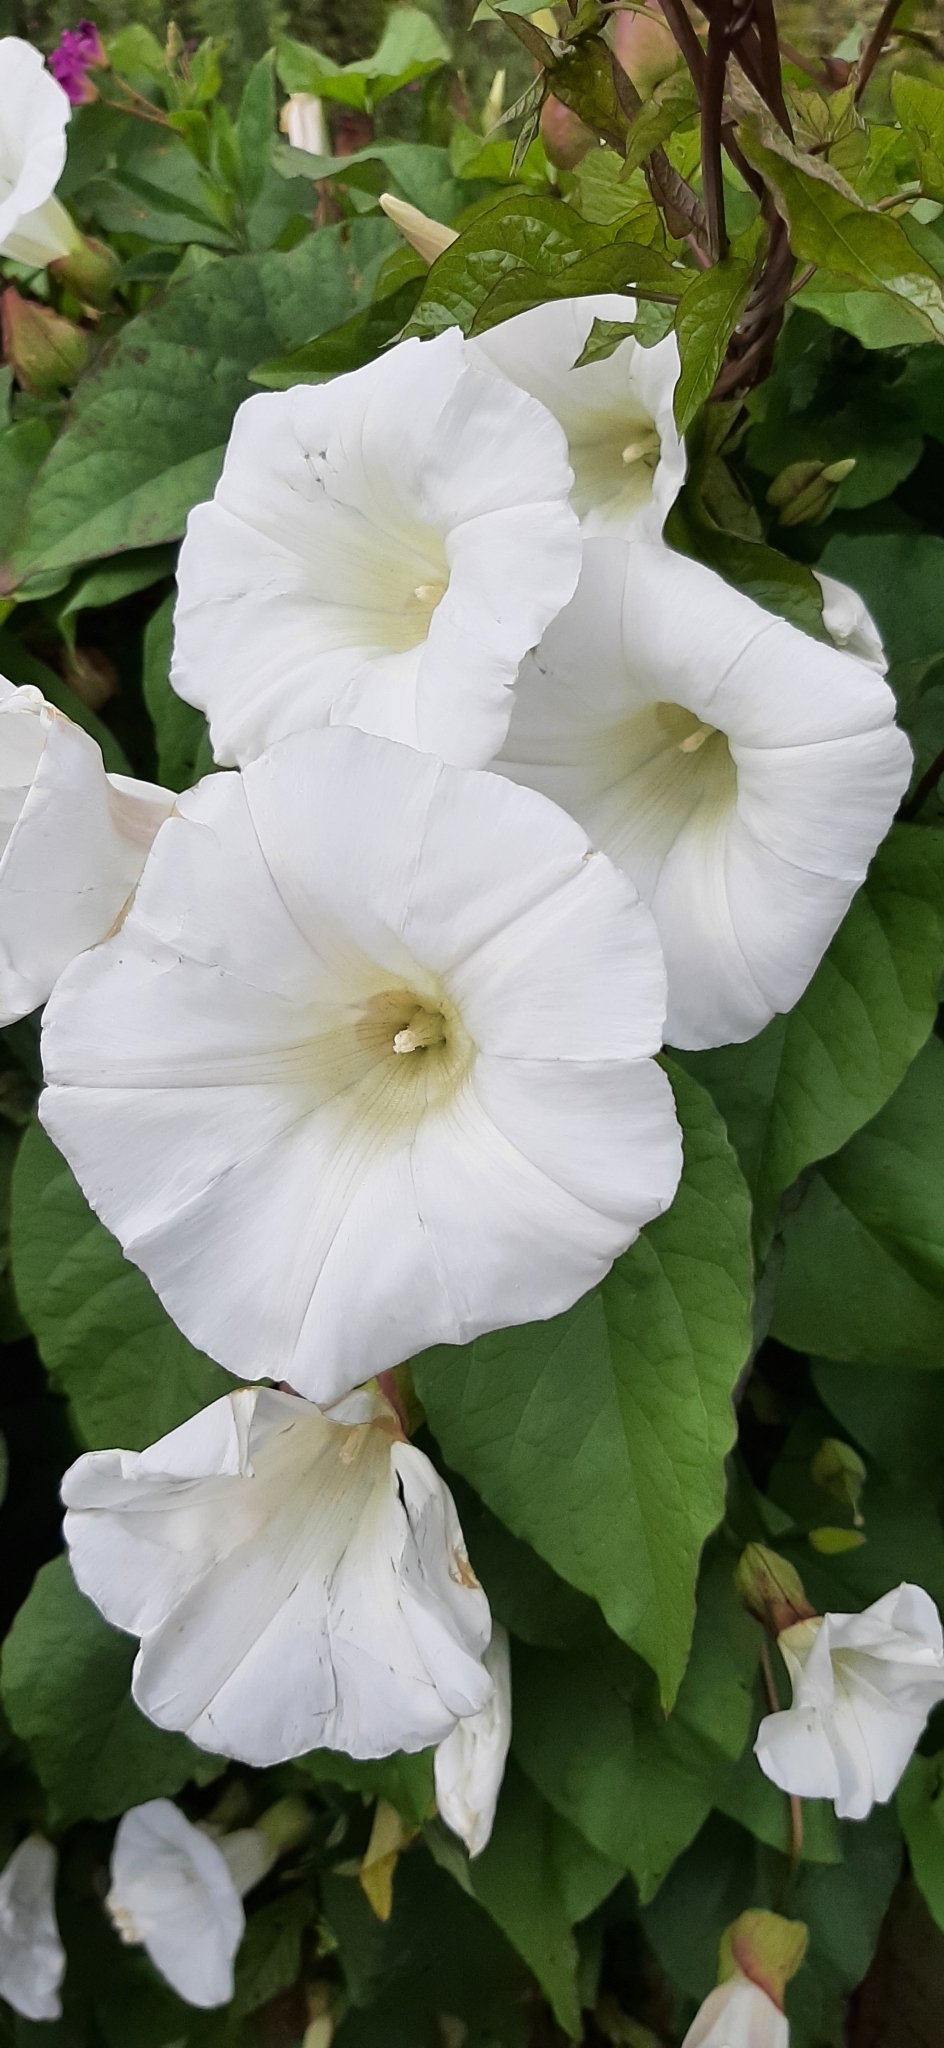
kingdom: Plantae
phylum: Tracheophyta
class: Magnoliopsida
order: Solanales
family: Convolvulaceae
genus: Calystegia
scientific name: Calystegia silvatica
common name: Large bindweed
